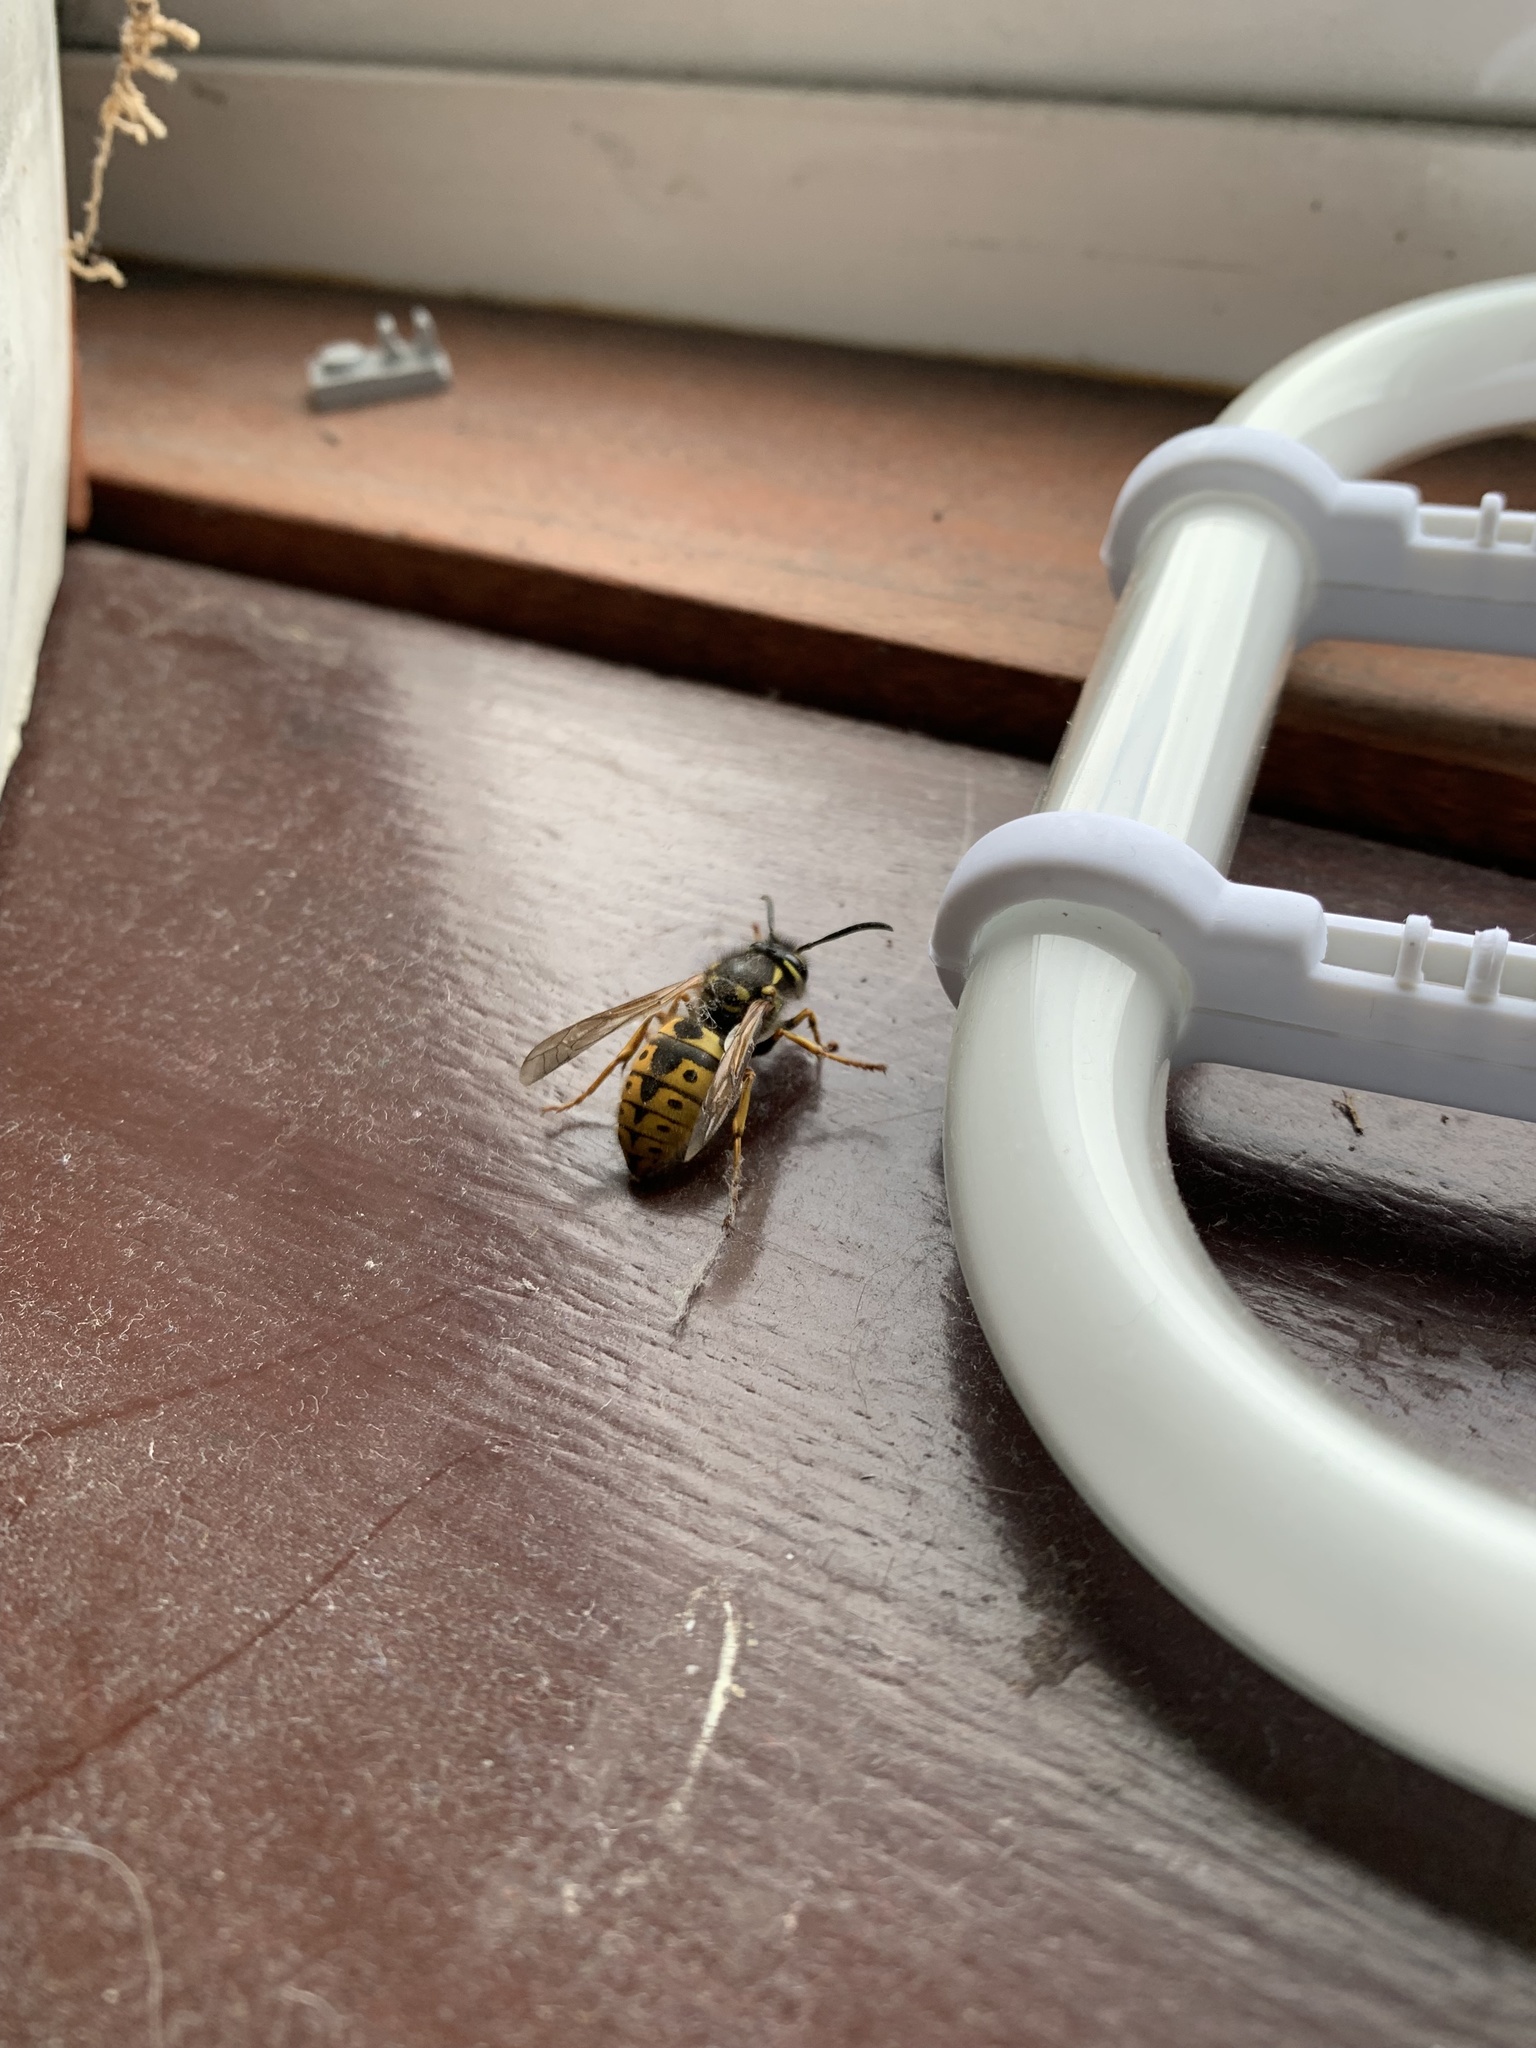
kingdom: Animalia
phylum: Arthropoda
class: Insecta
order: Hymenoptera
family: Vespidae
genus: Vespula
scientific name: Vespula germanica
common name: German wasp
